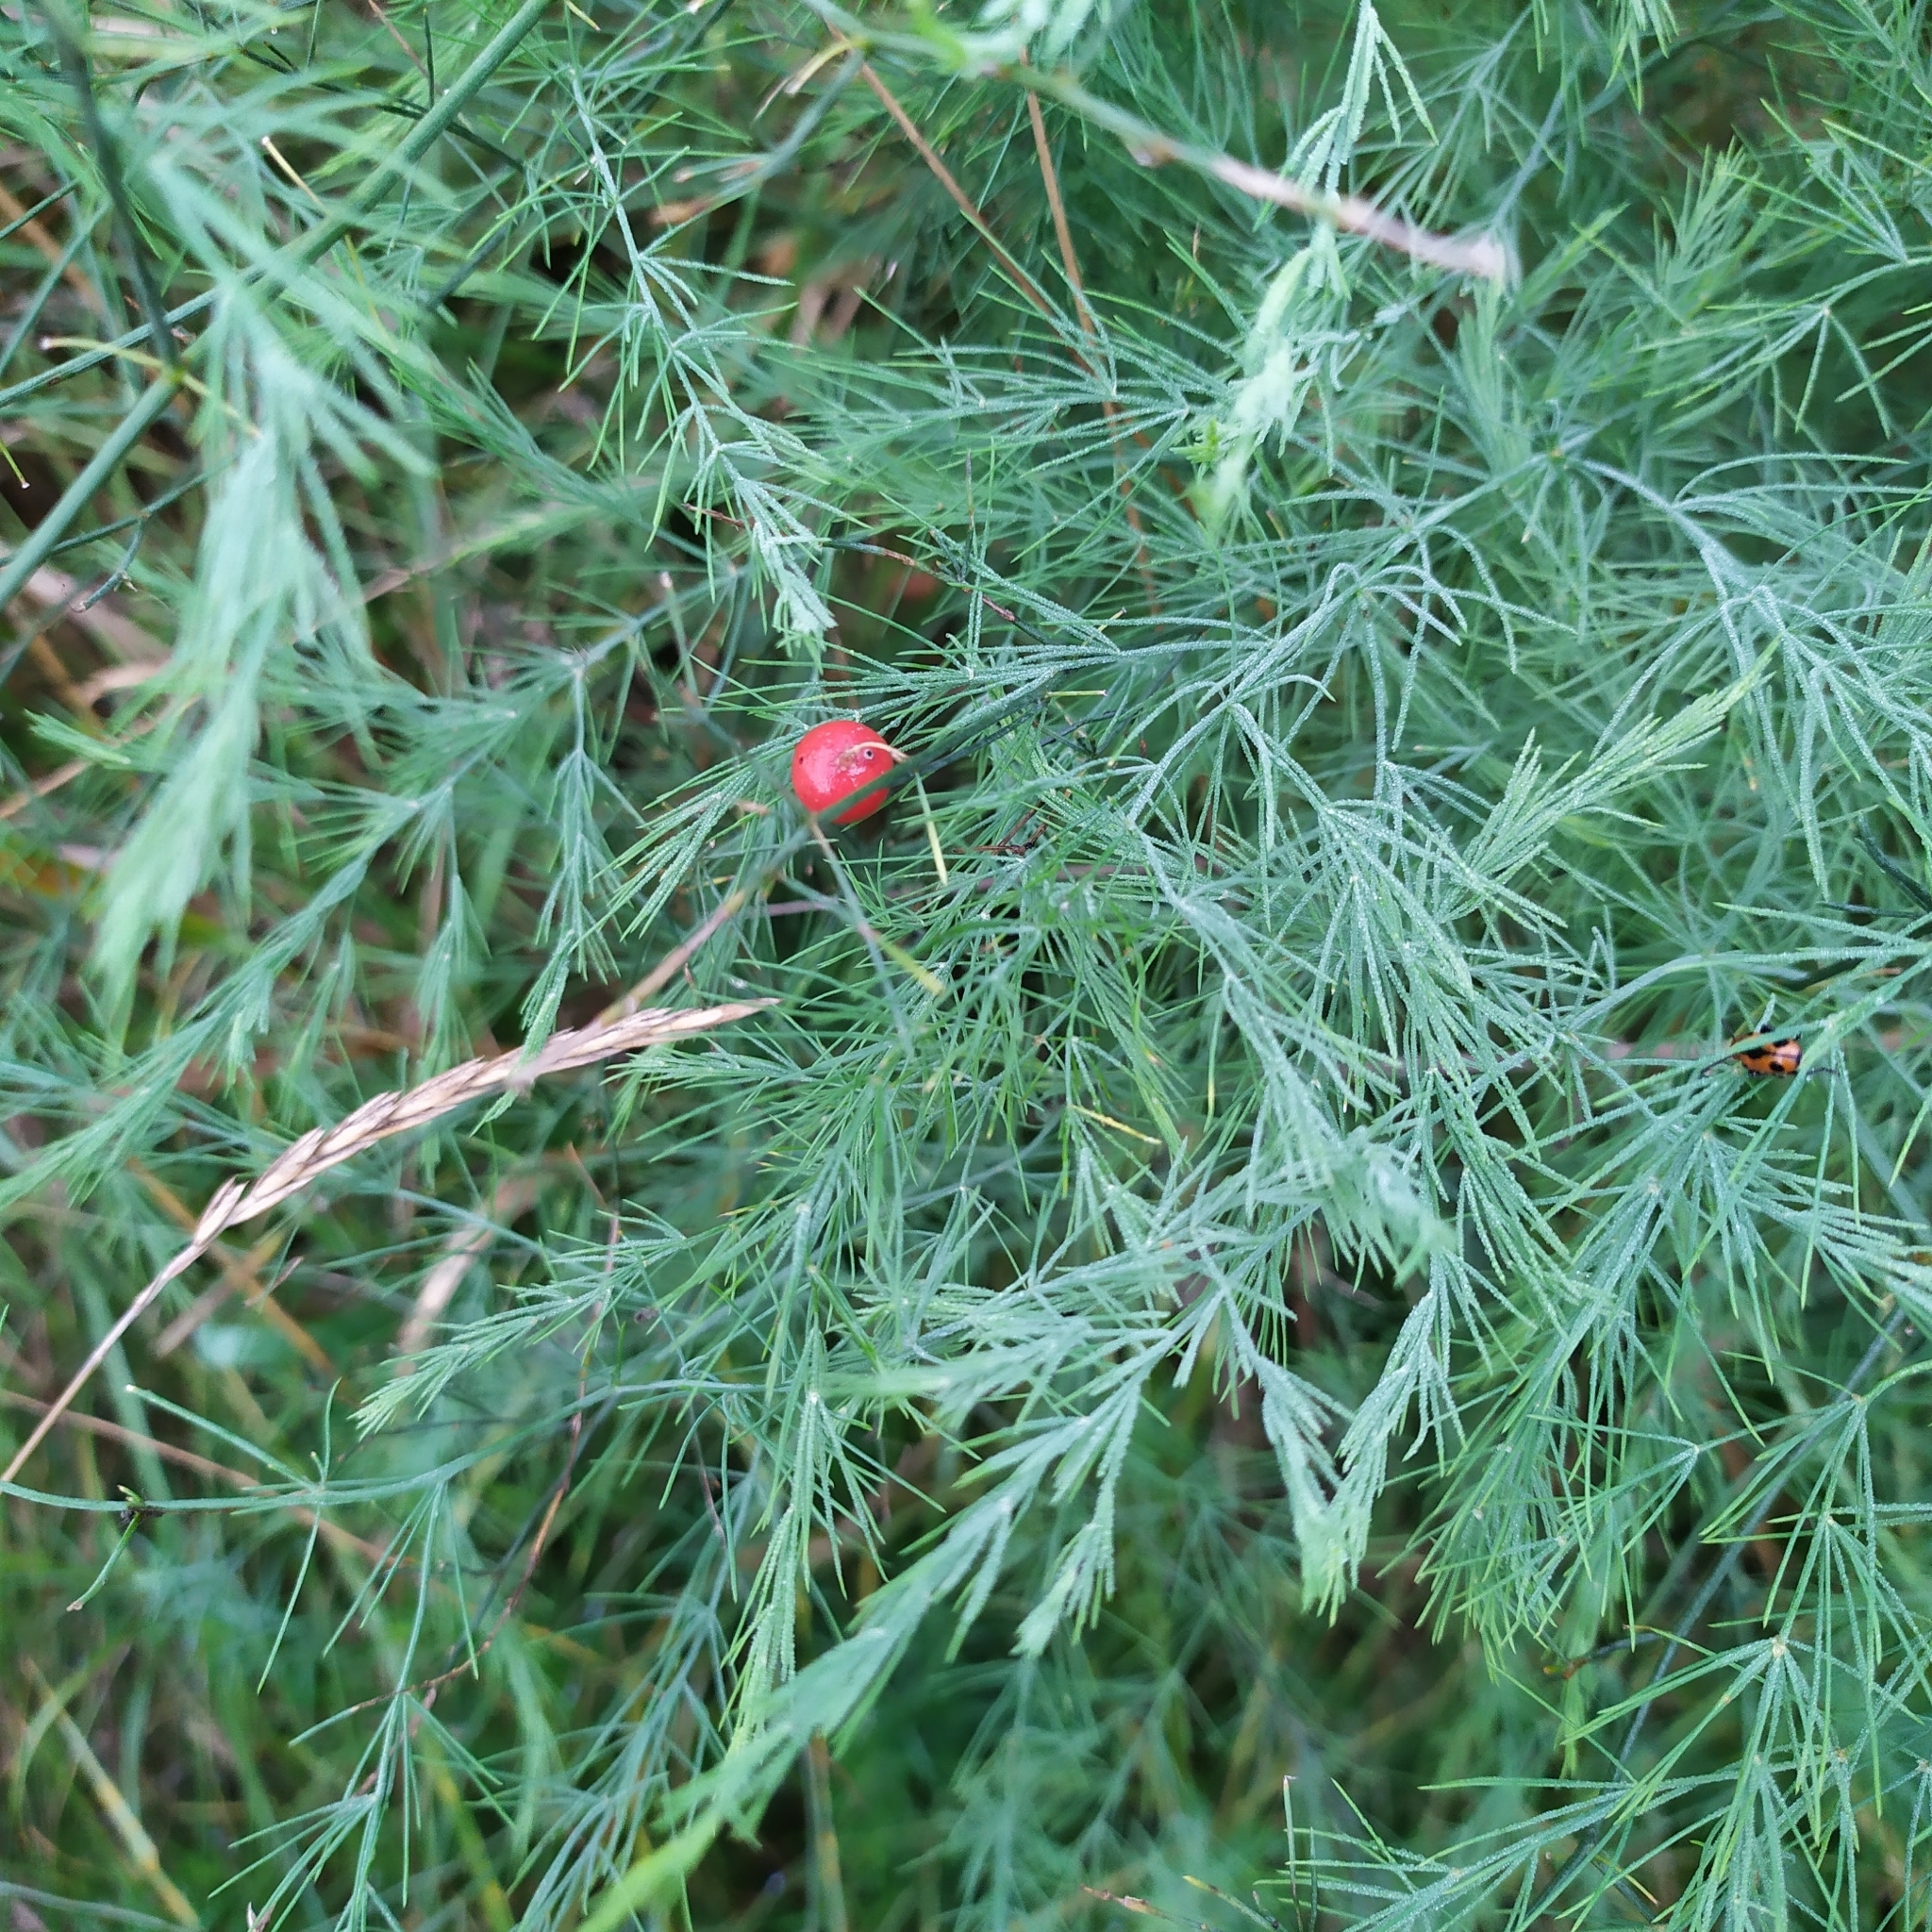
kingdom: Plantae
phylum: Tracheophyta
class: Liliopsida
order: Asparagales
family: Asparagaceae
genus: Asparagus
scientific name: Asparagus officinalis
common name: Garden asparagus
